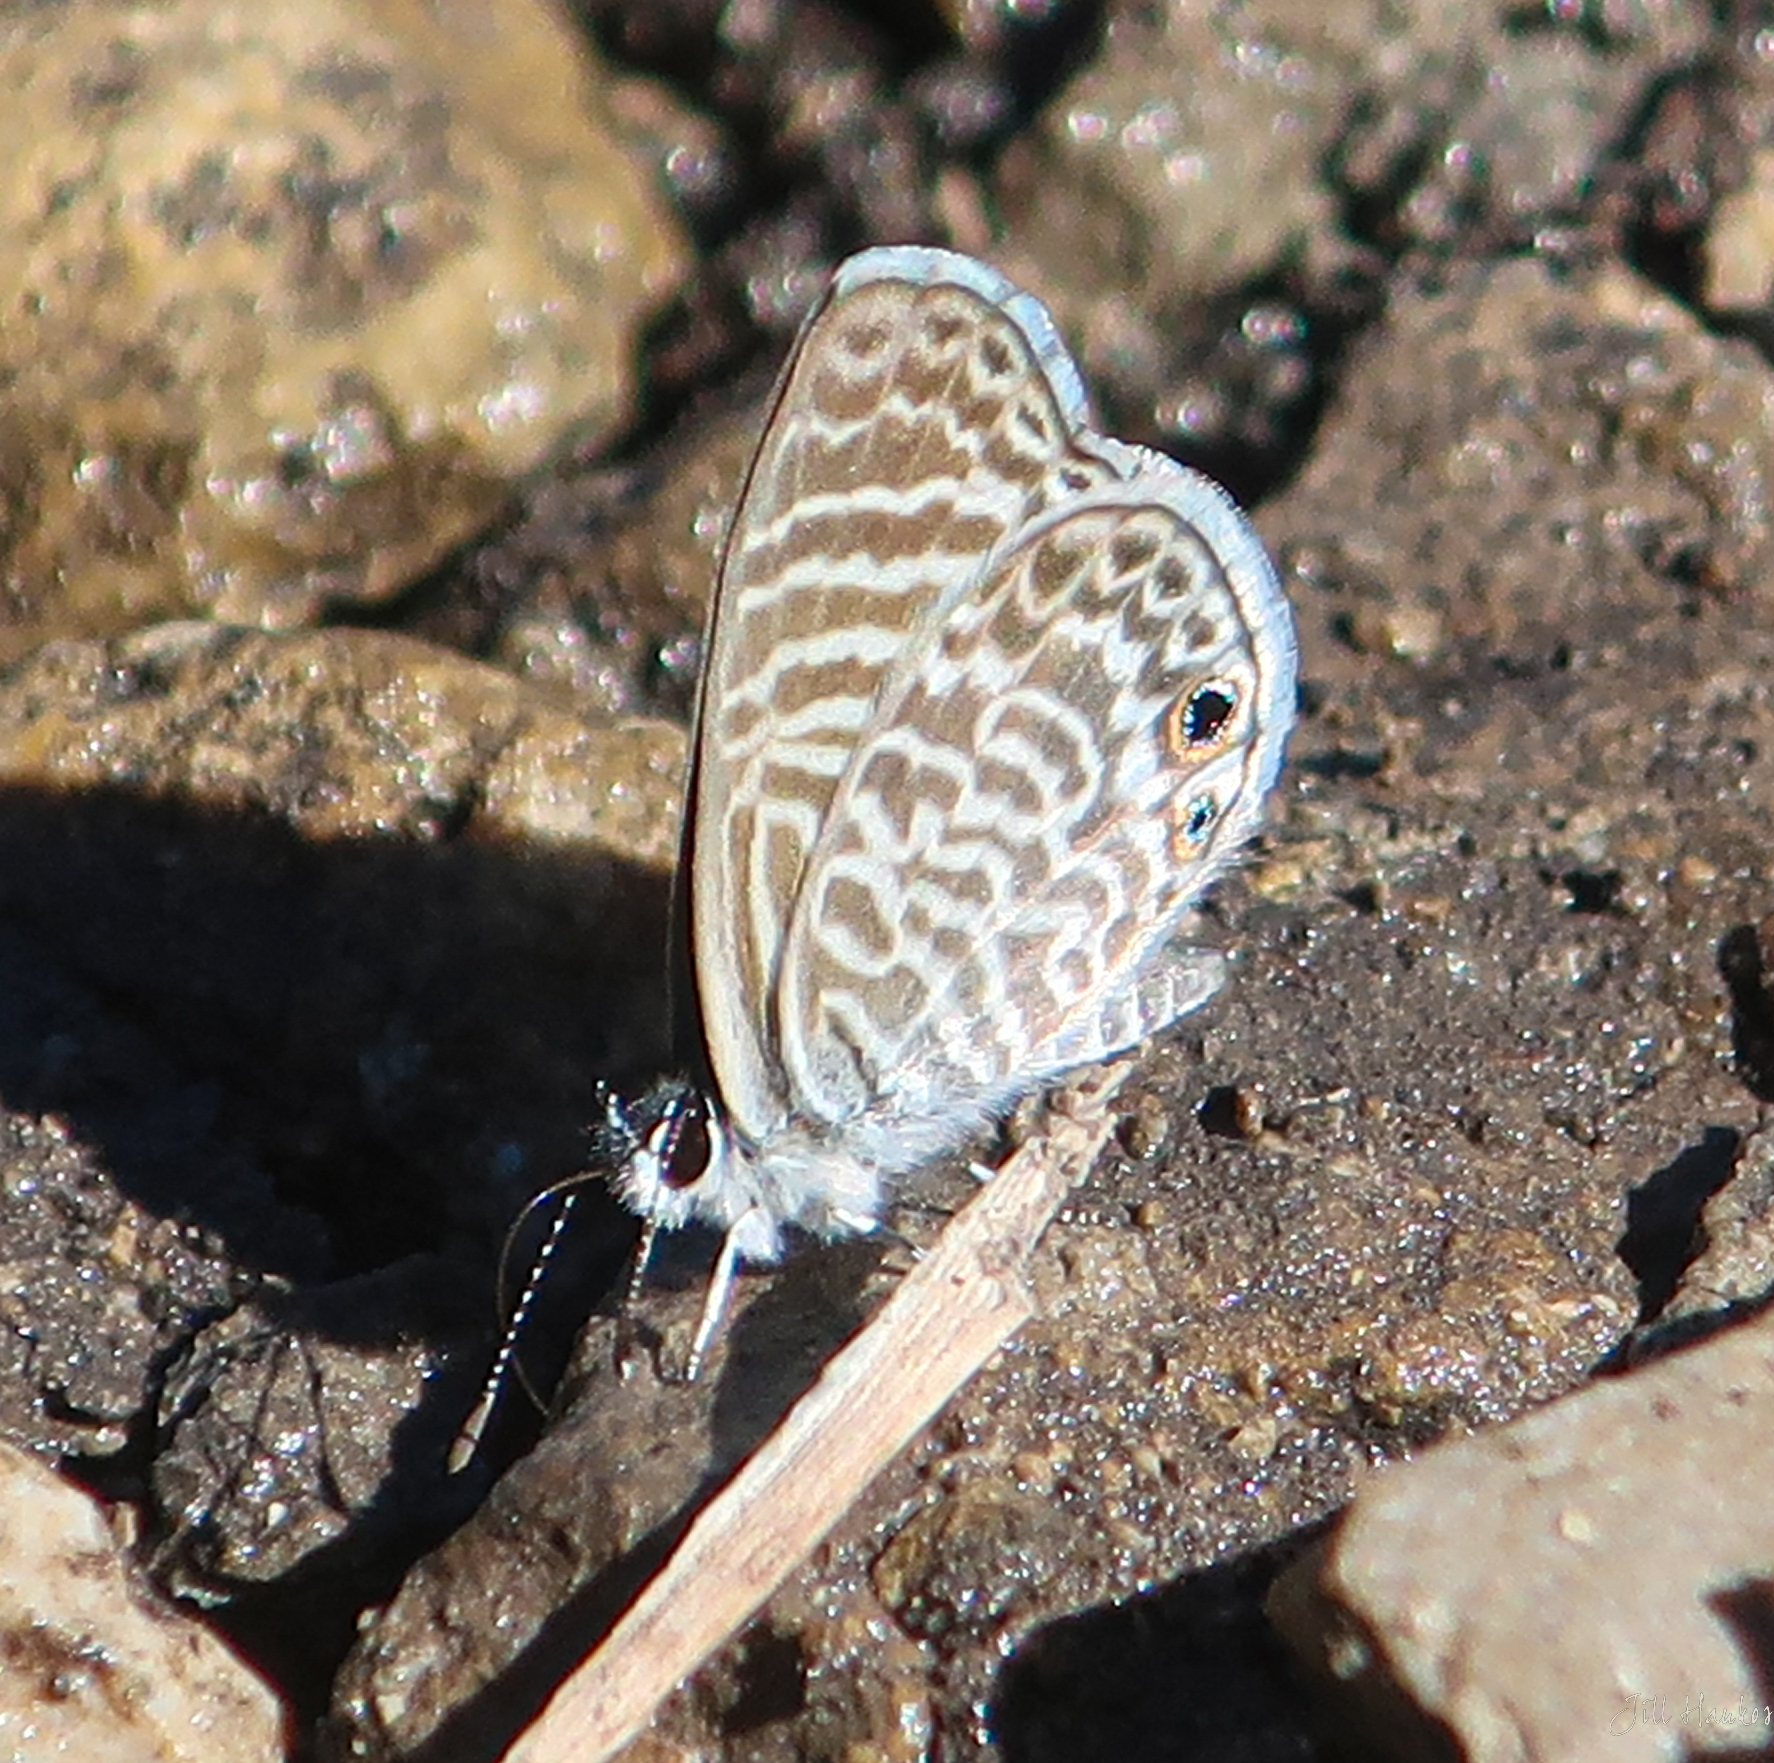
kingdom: Animalia
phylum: Arthropoda
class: Insecta
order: Lepidoptera
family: Lycaenidae
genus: Leptotes
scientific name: Leptotes marina
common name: Marine blue
